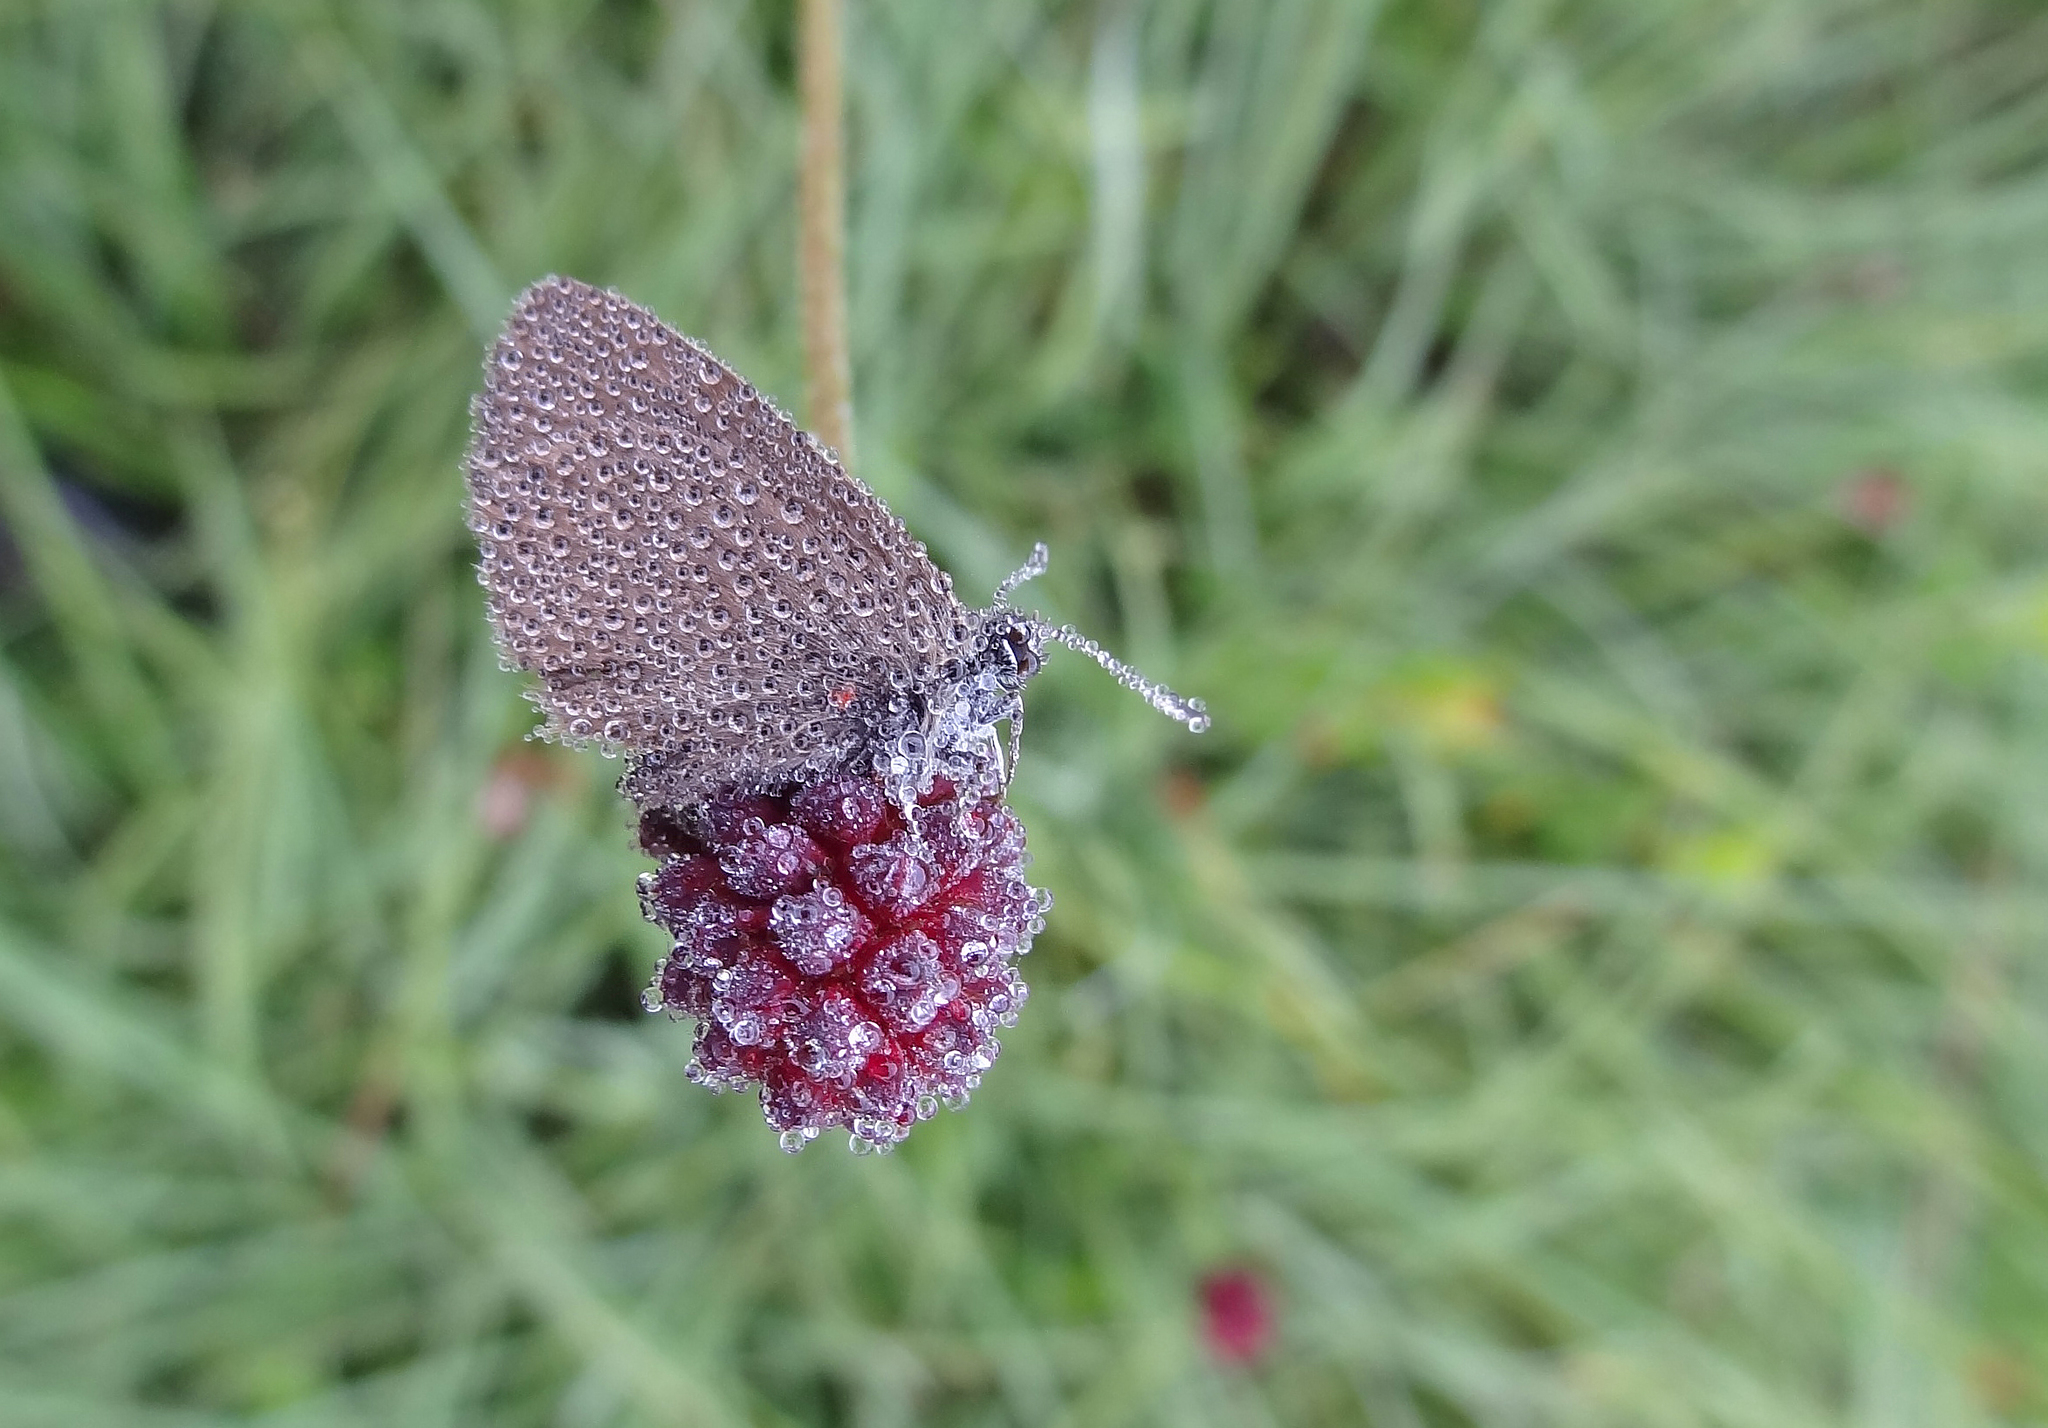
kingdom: Animalia
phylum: Arthropoda
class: Insecta
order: Lepidoptera
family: Lycaenidae
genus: Maculinea
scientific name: Maculinea nausithous
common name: Dusky large blue
